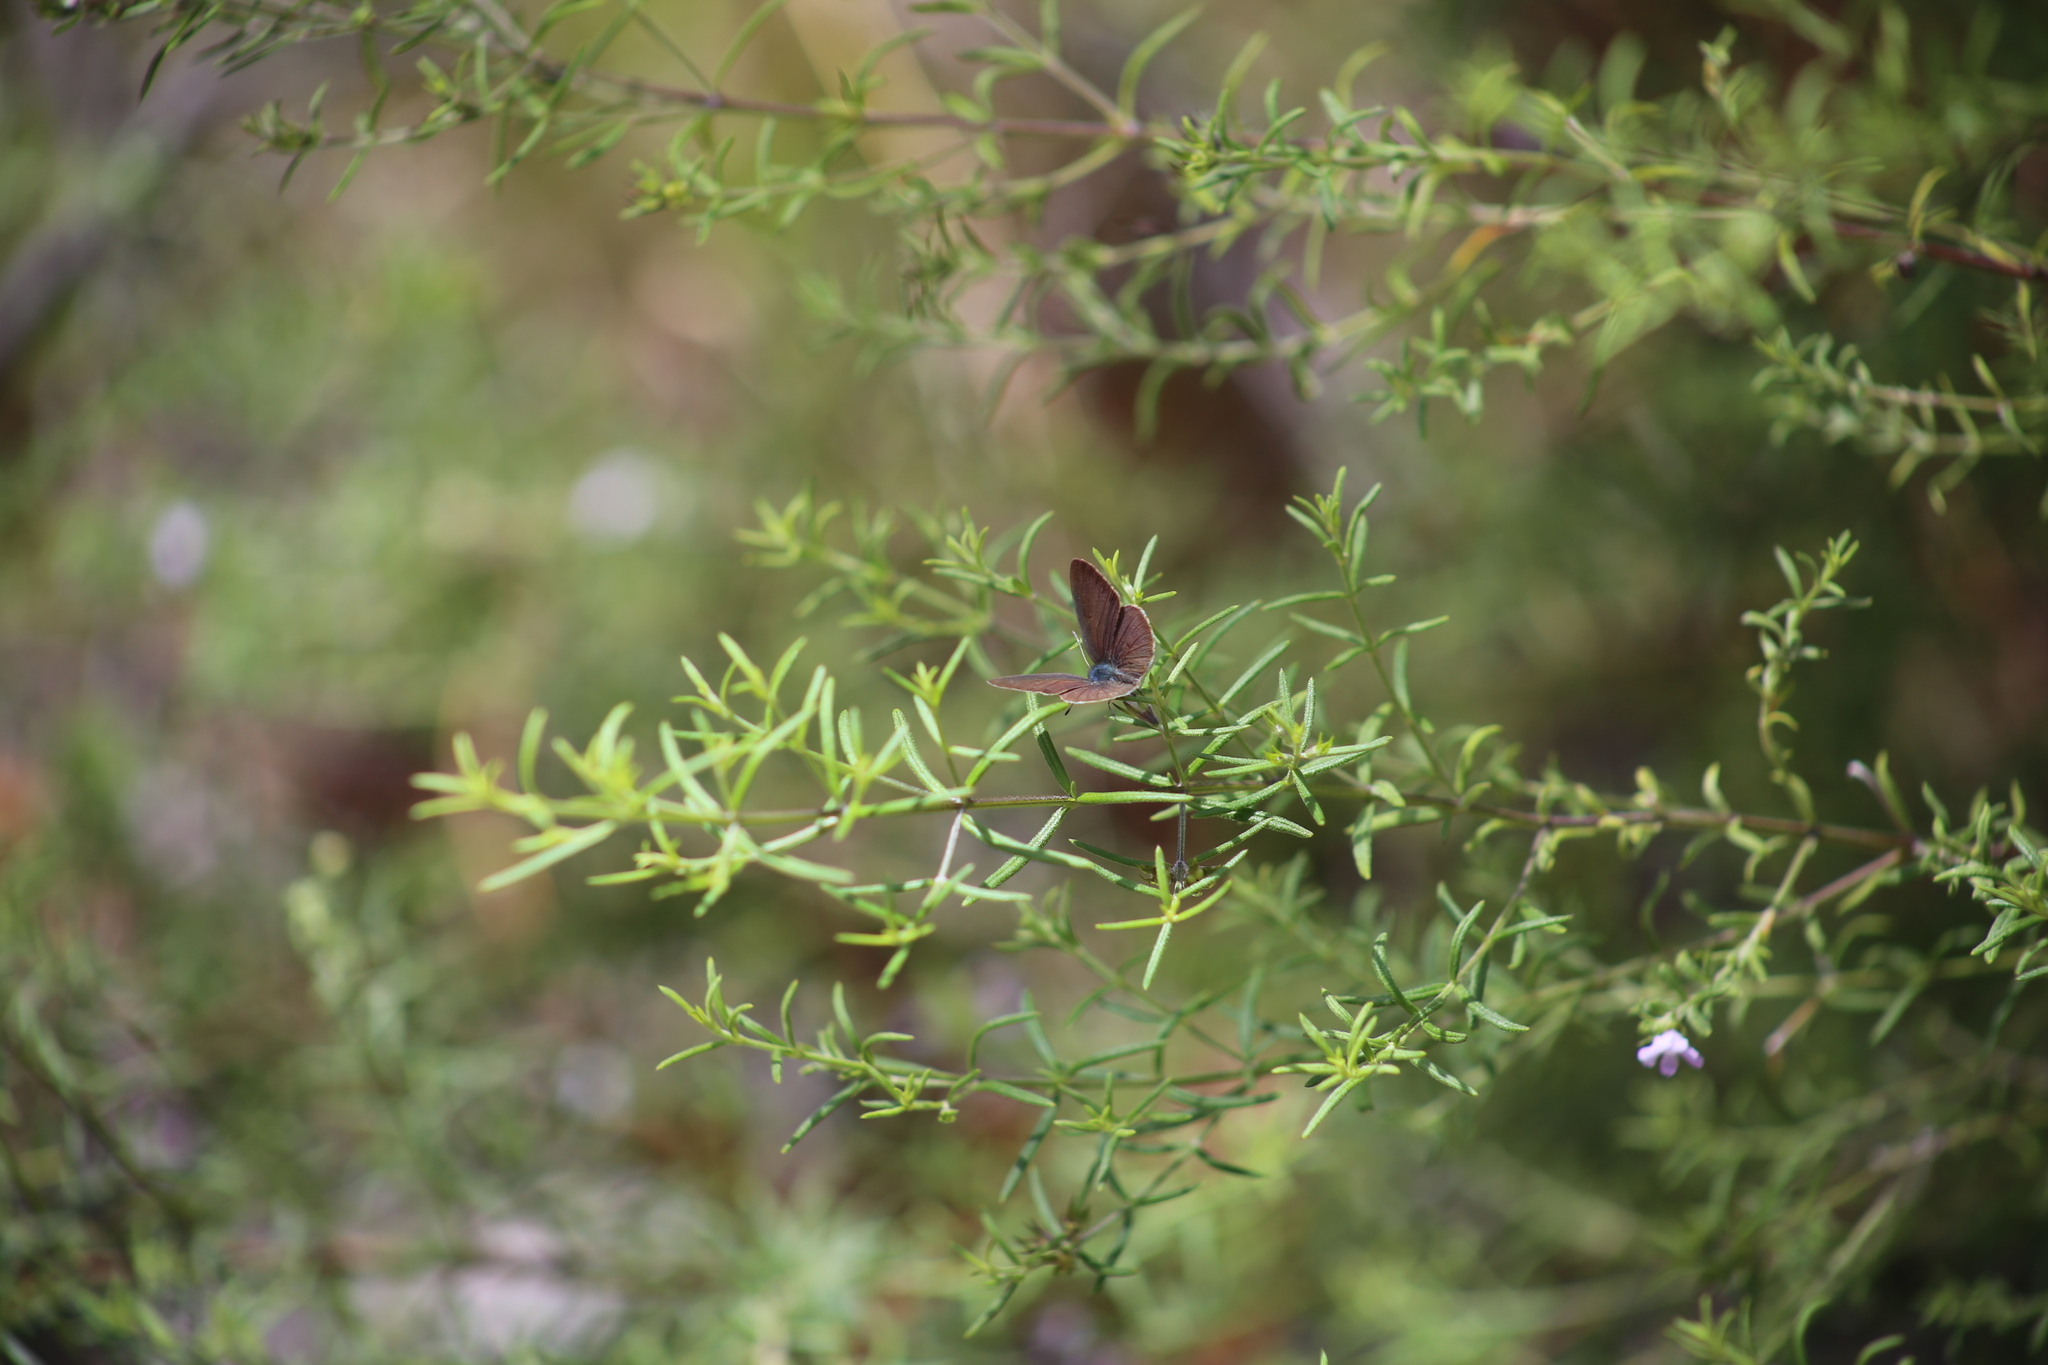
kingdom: Animalia
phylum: Arthropoda
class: Insecta
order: Lepidoptera
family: Lycaenidae
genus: Candalides
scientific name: Candalides
